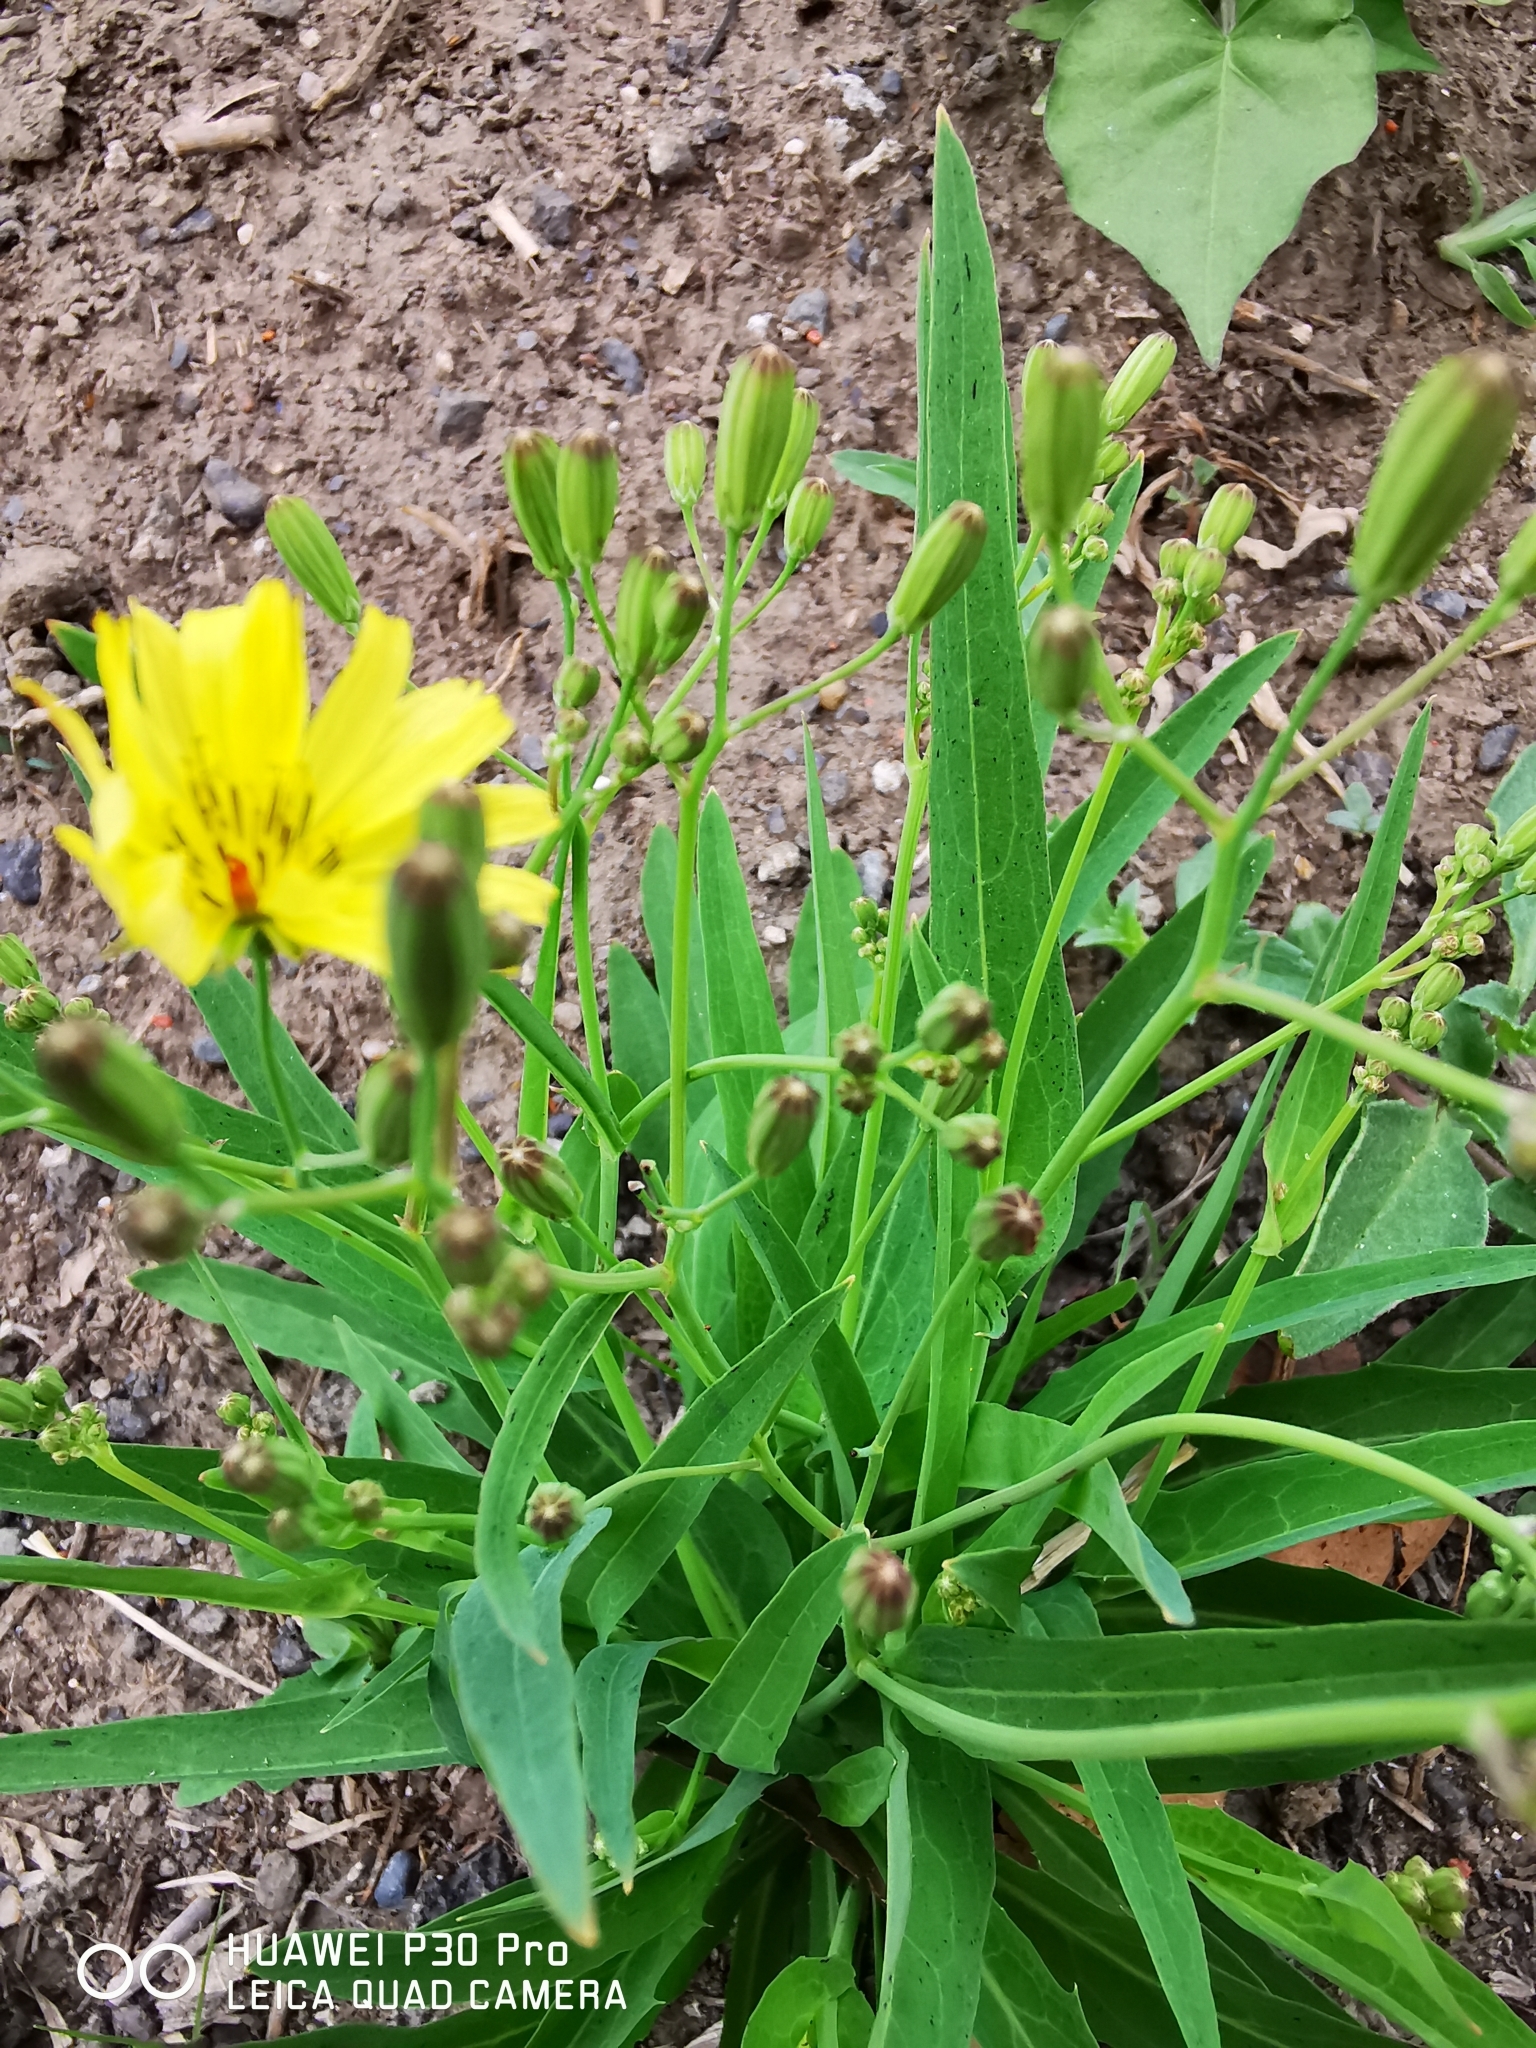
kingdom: Plantae
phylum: Tracheophyta
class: Magnoliopsida
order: Asterales
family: Asteraceae
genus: Ixeris
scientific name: Ixeris chinensis
